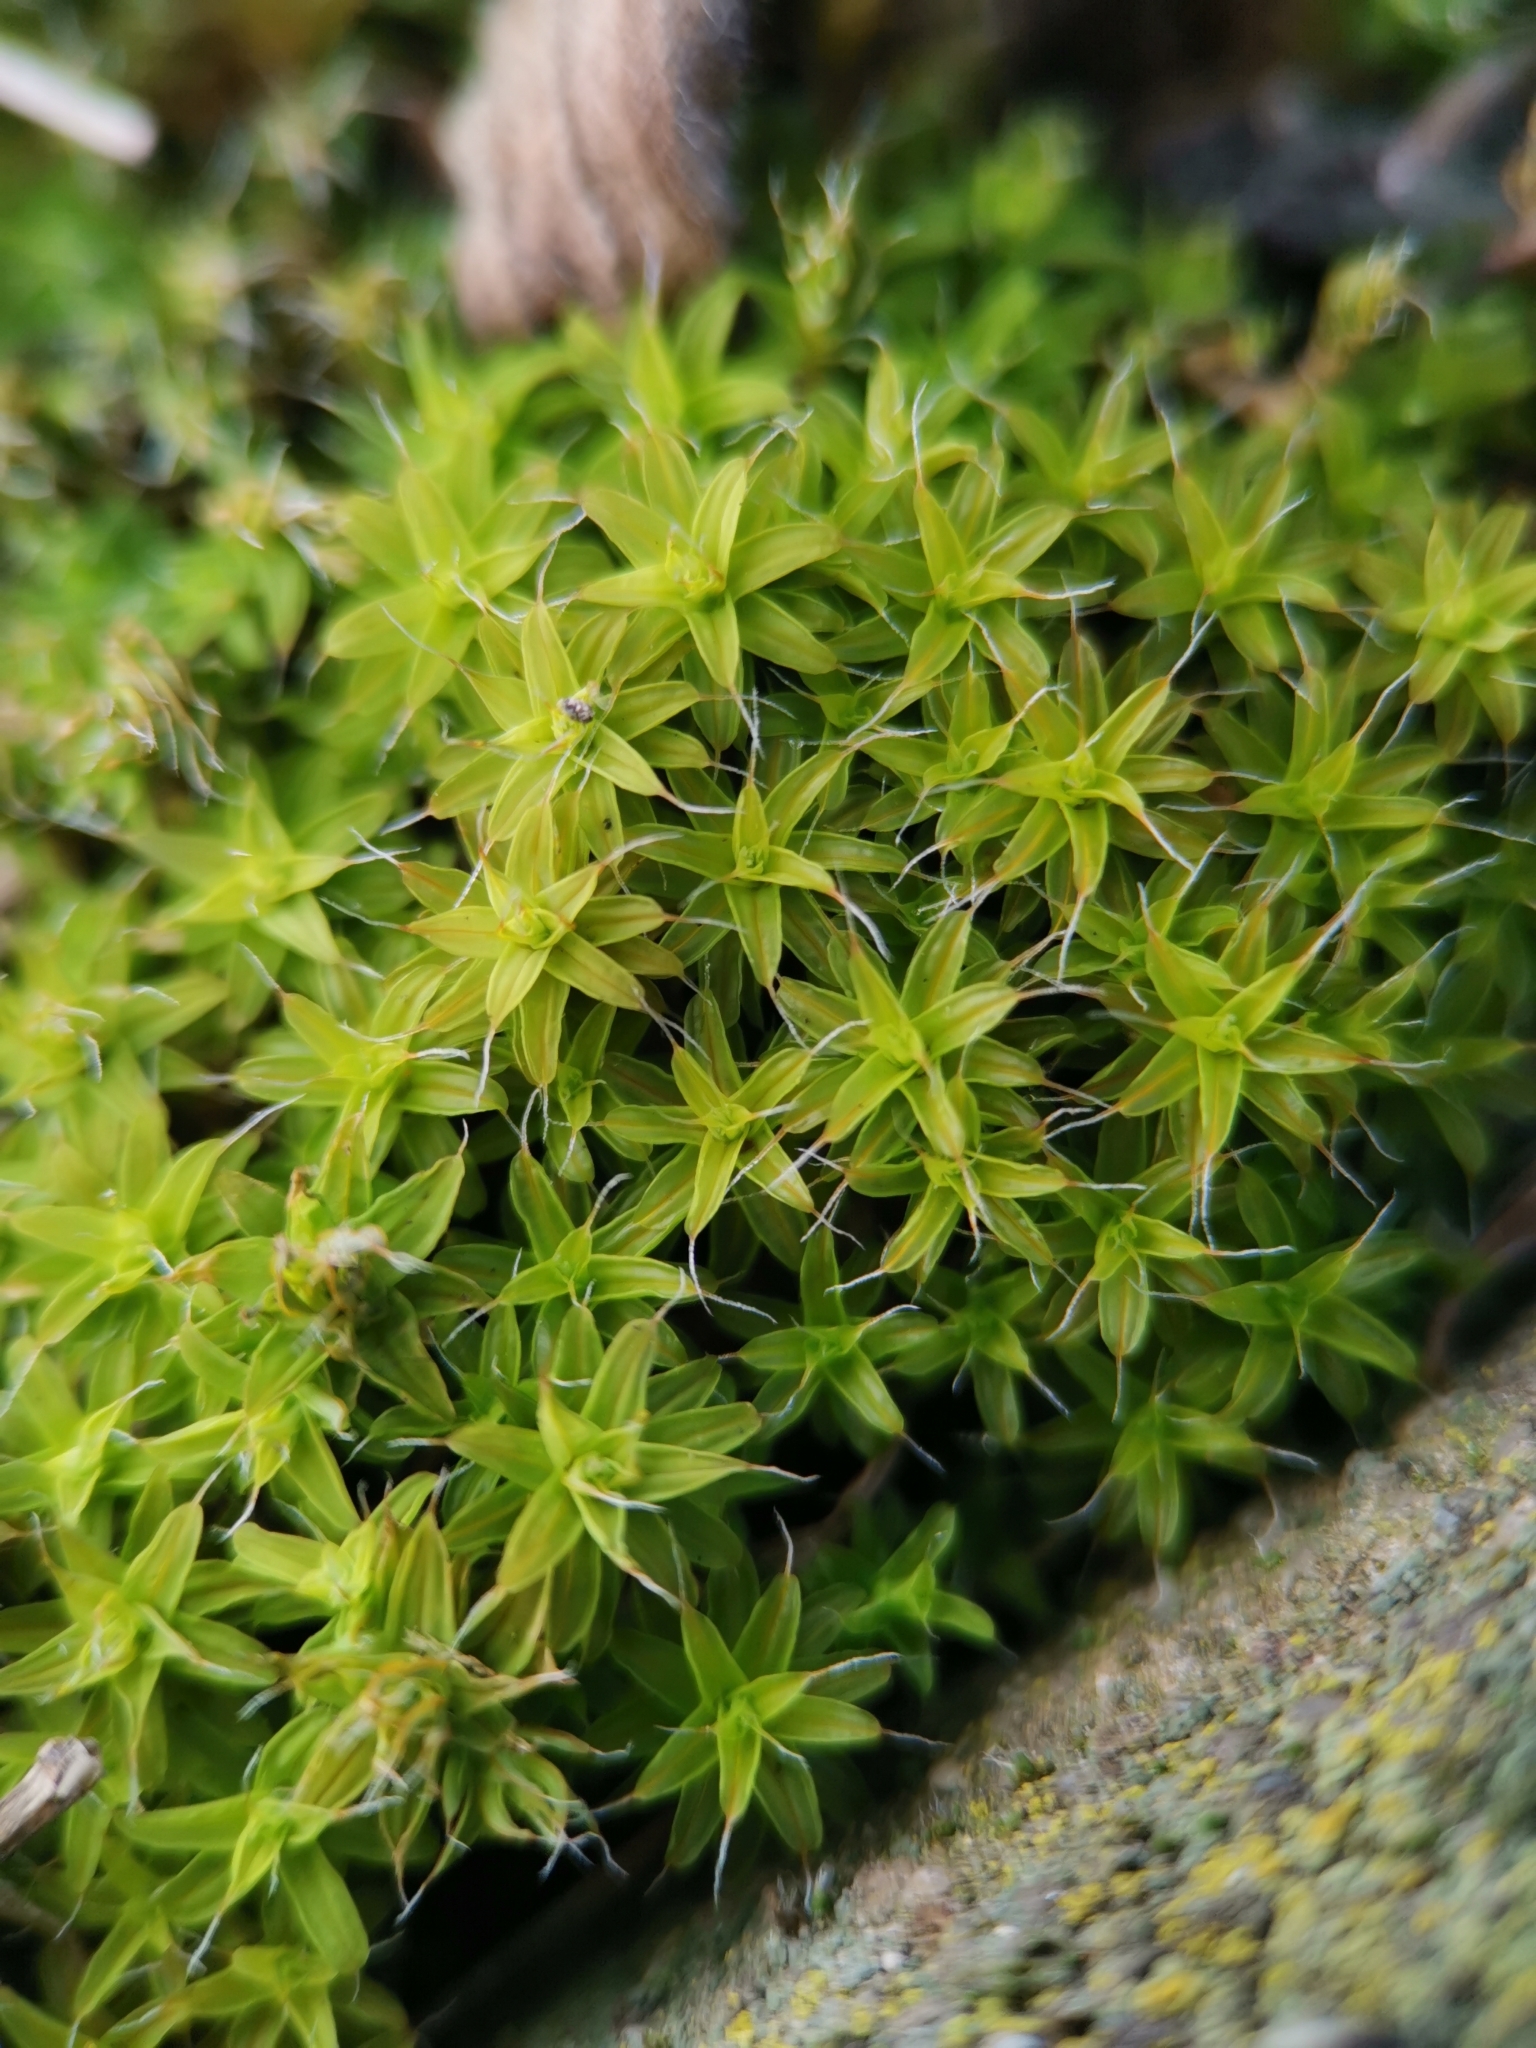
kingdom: Plantae
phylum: Bryophyta
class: Bryopsida
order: Pottiales
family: Pottiaceae
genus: Syntrichia
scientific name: Syntrichia ruralis
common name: Sidewalk screw moss
